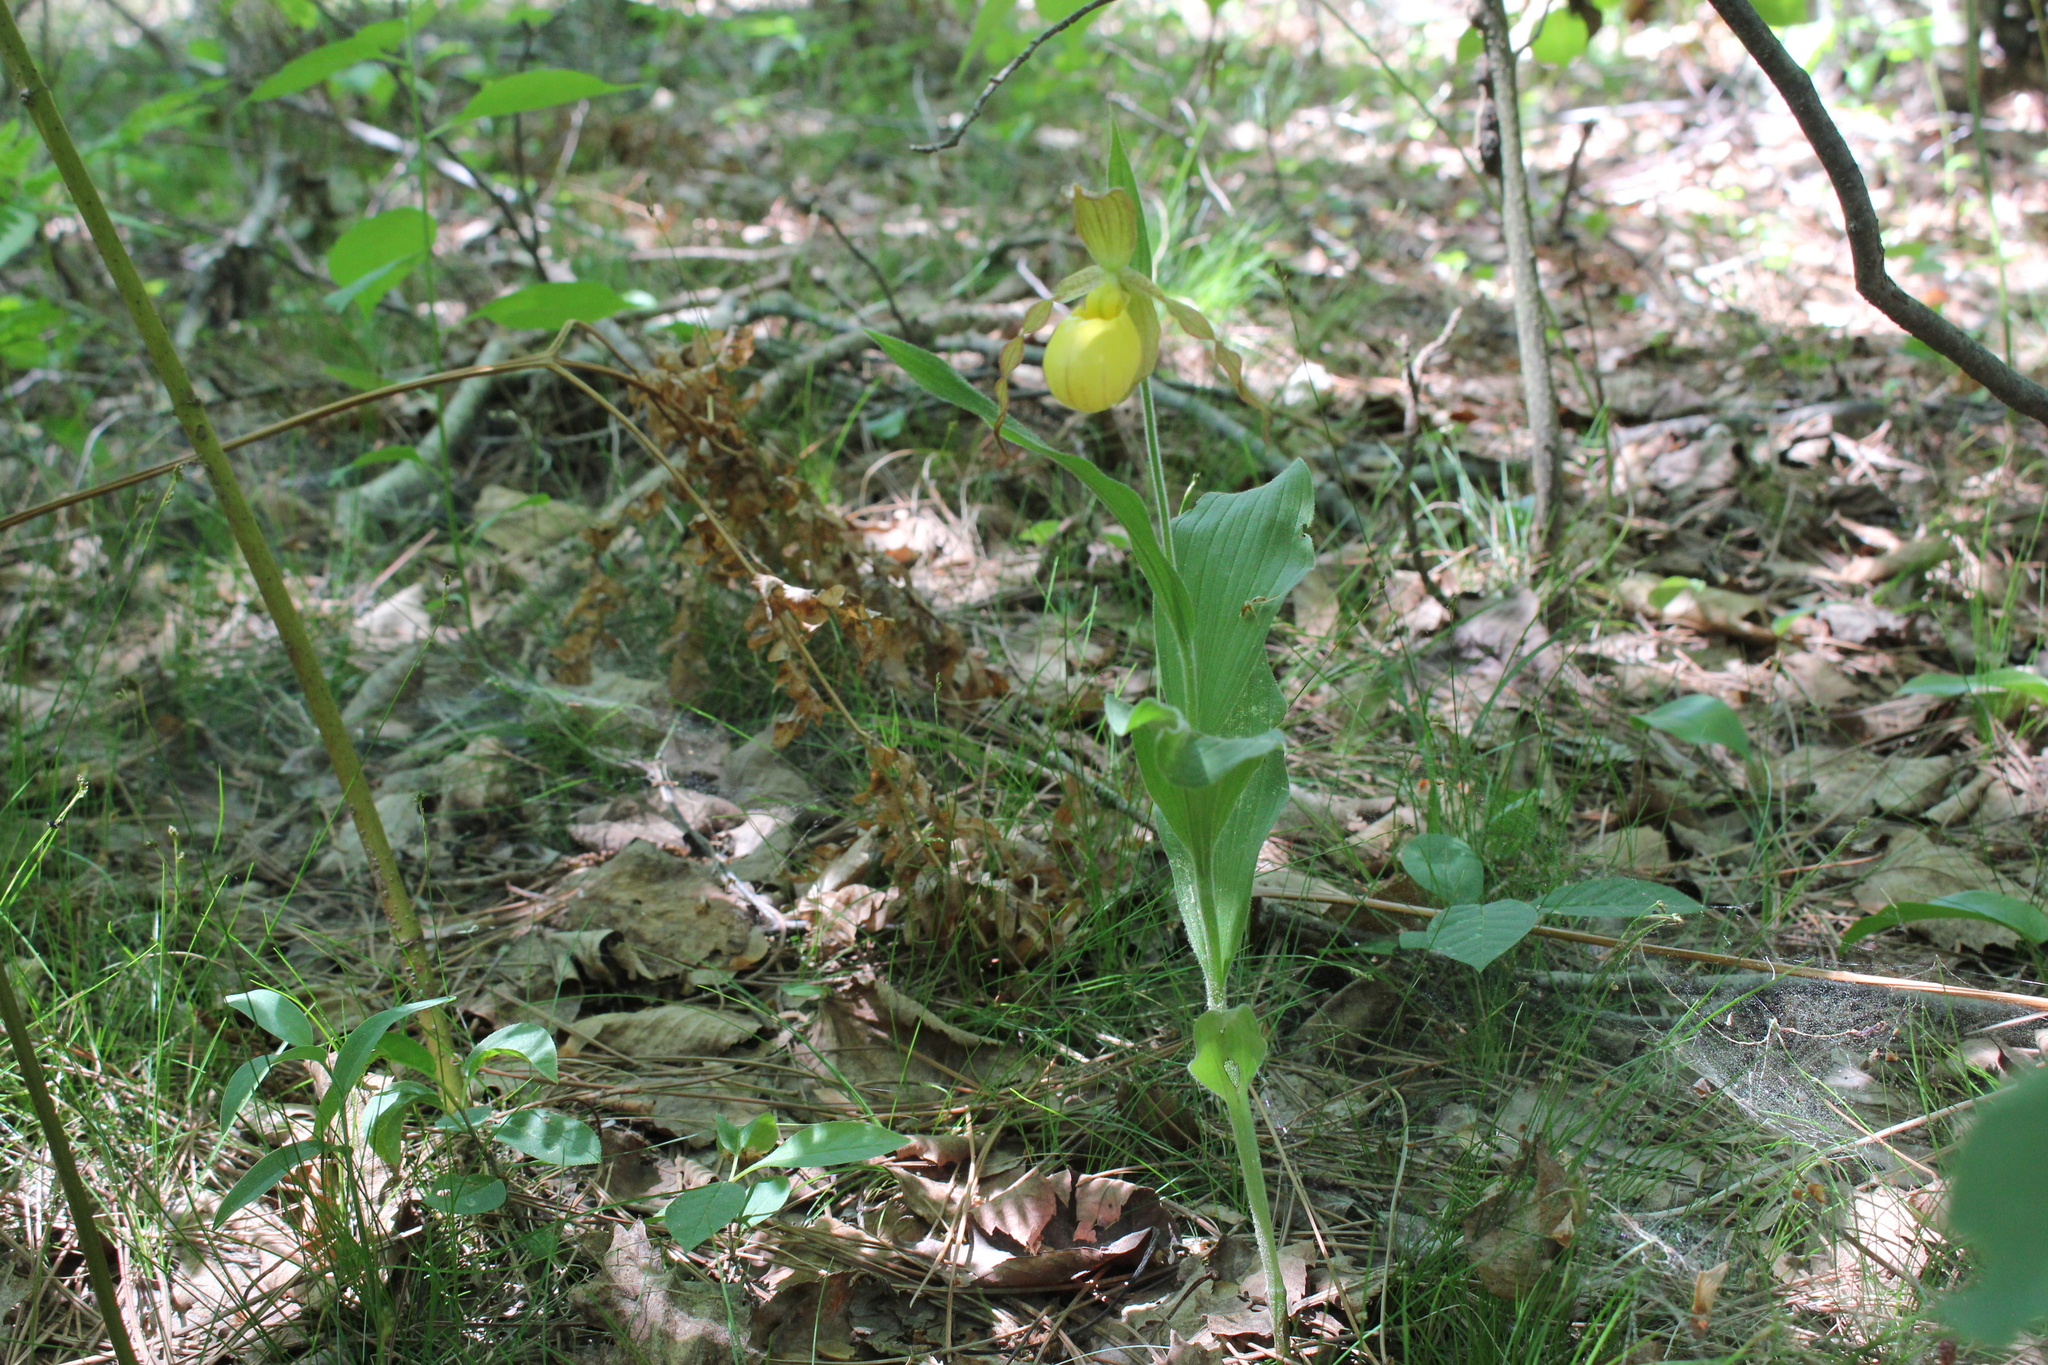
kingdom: Plantae
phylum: Tracheophyta
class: Liliopsida
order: Asparagales
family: Orchidaceae
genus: Cypripedium
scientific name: Cypripedium parviflorum
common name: American yellow lady's-slipper
